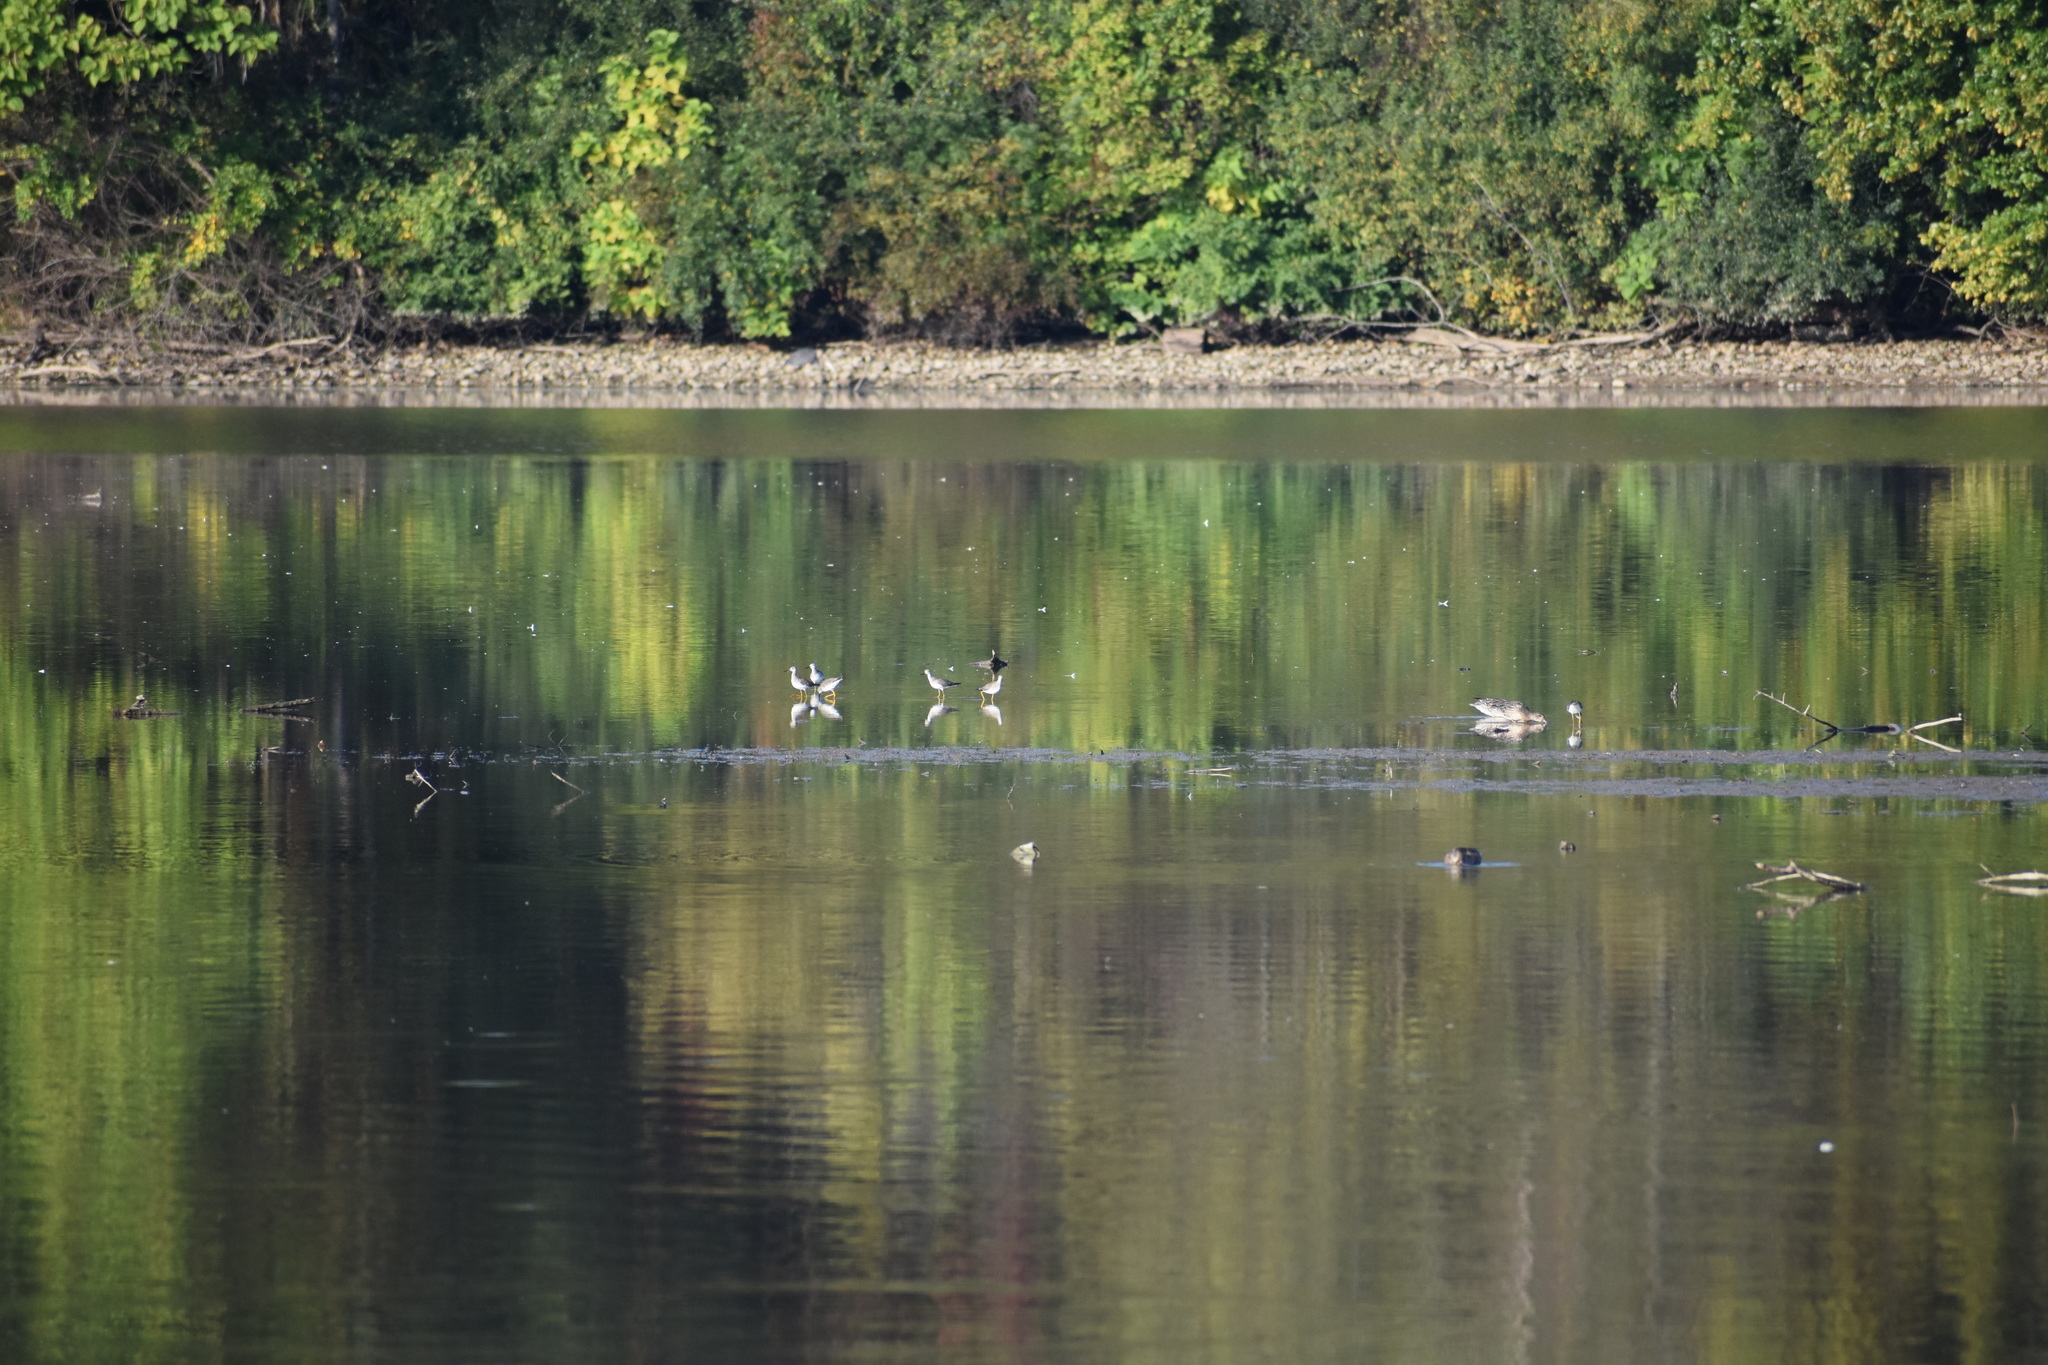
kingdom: Animalia
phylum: Chordata
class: Aves
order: Charadriiformes
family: Scolopacidae
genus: Tringa
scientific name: Tringa flavipes
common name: Lesser yellowlegs
